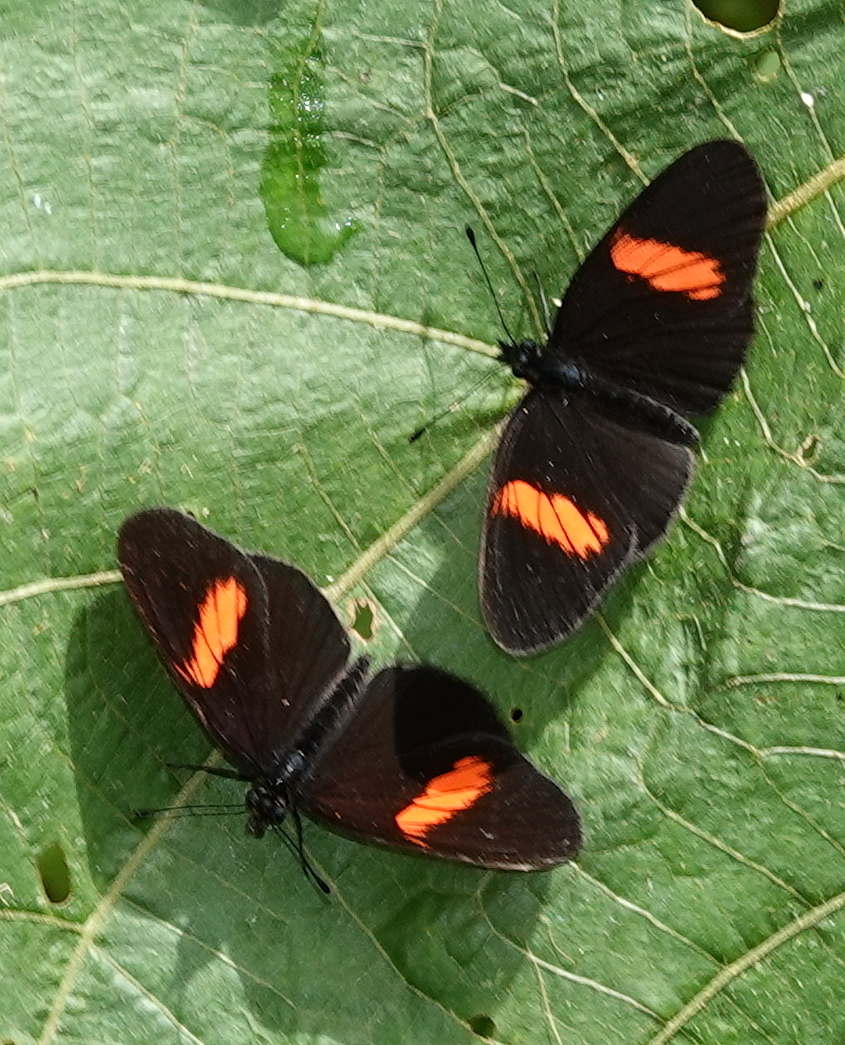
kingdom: Animalia
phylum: Arthropoda
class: Insecta
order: Lepidoptera
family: Nymphalidae
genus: Castilia
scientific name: Castilia castilla
